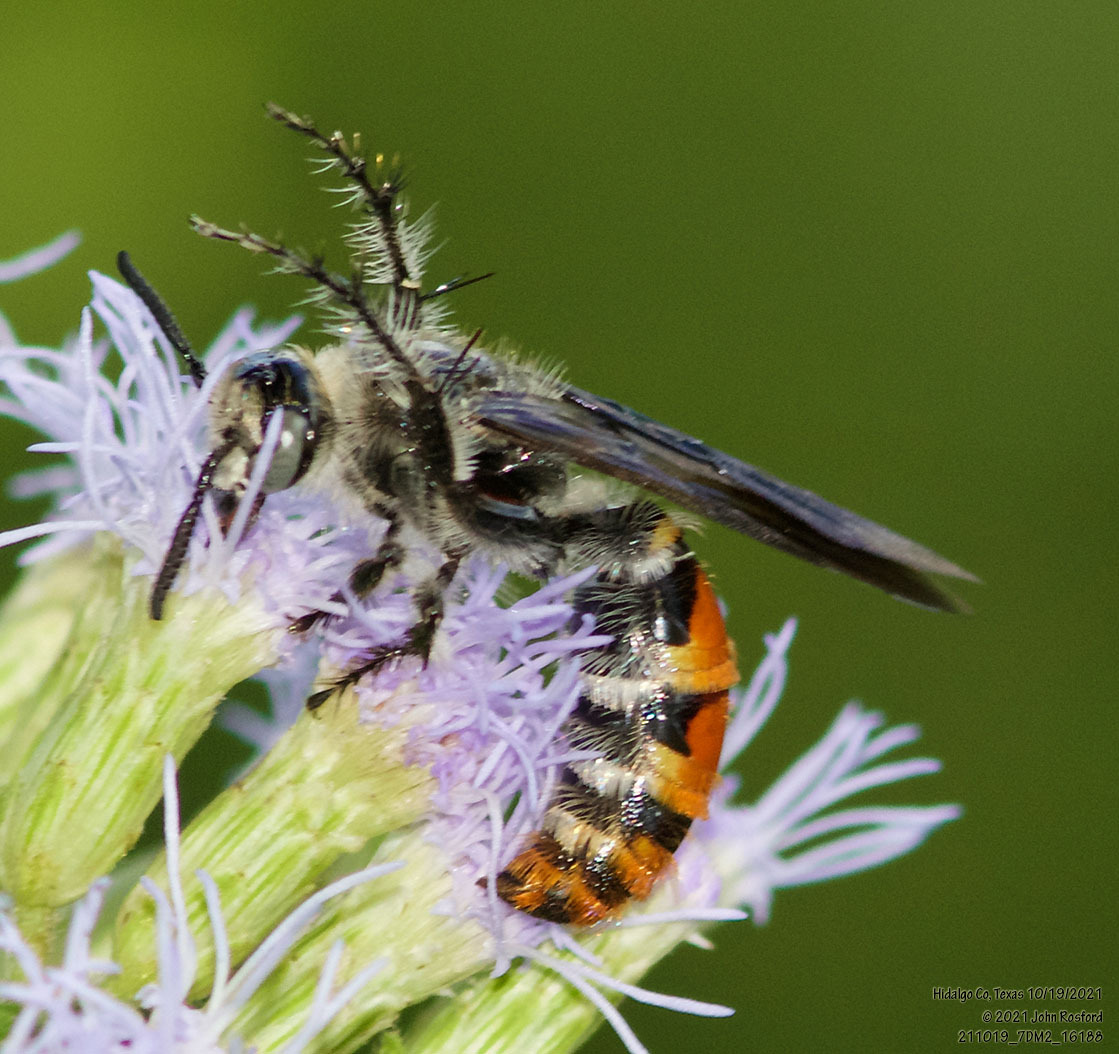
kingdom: Animalia
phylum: Arthropoda
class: Insecta
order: Hymenoptera
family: Scoliidae
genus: Dielis
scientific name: Dielis tolteca
